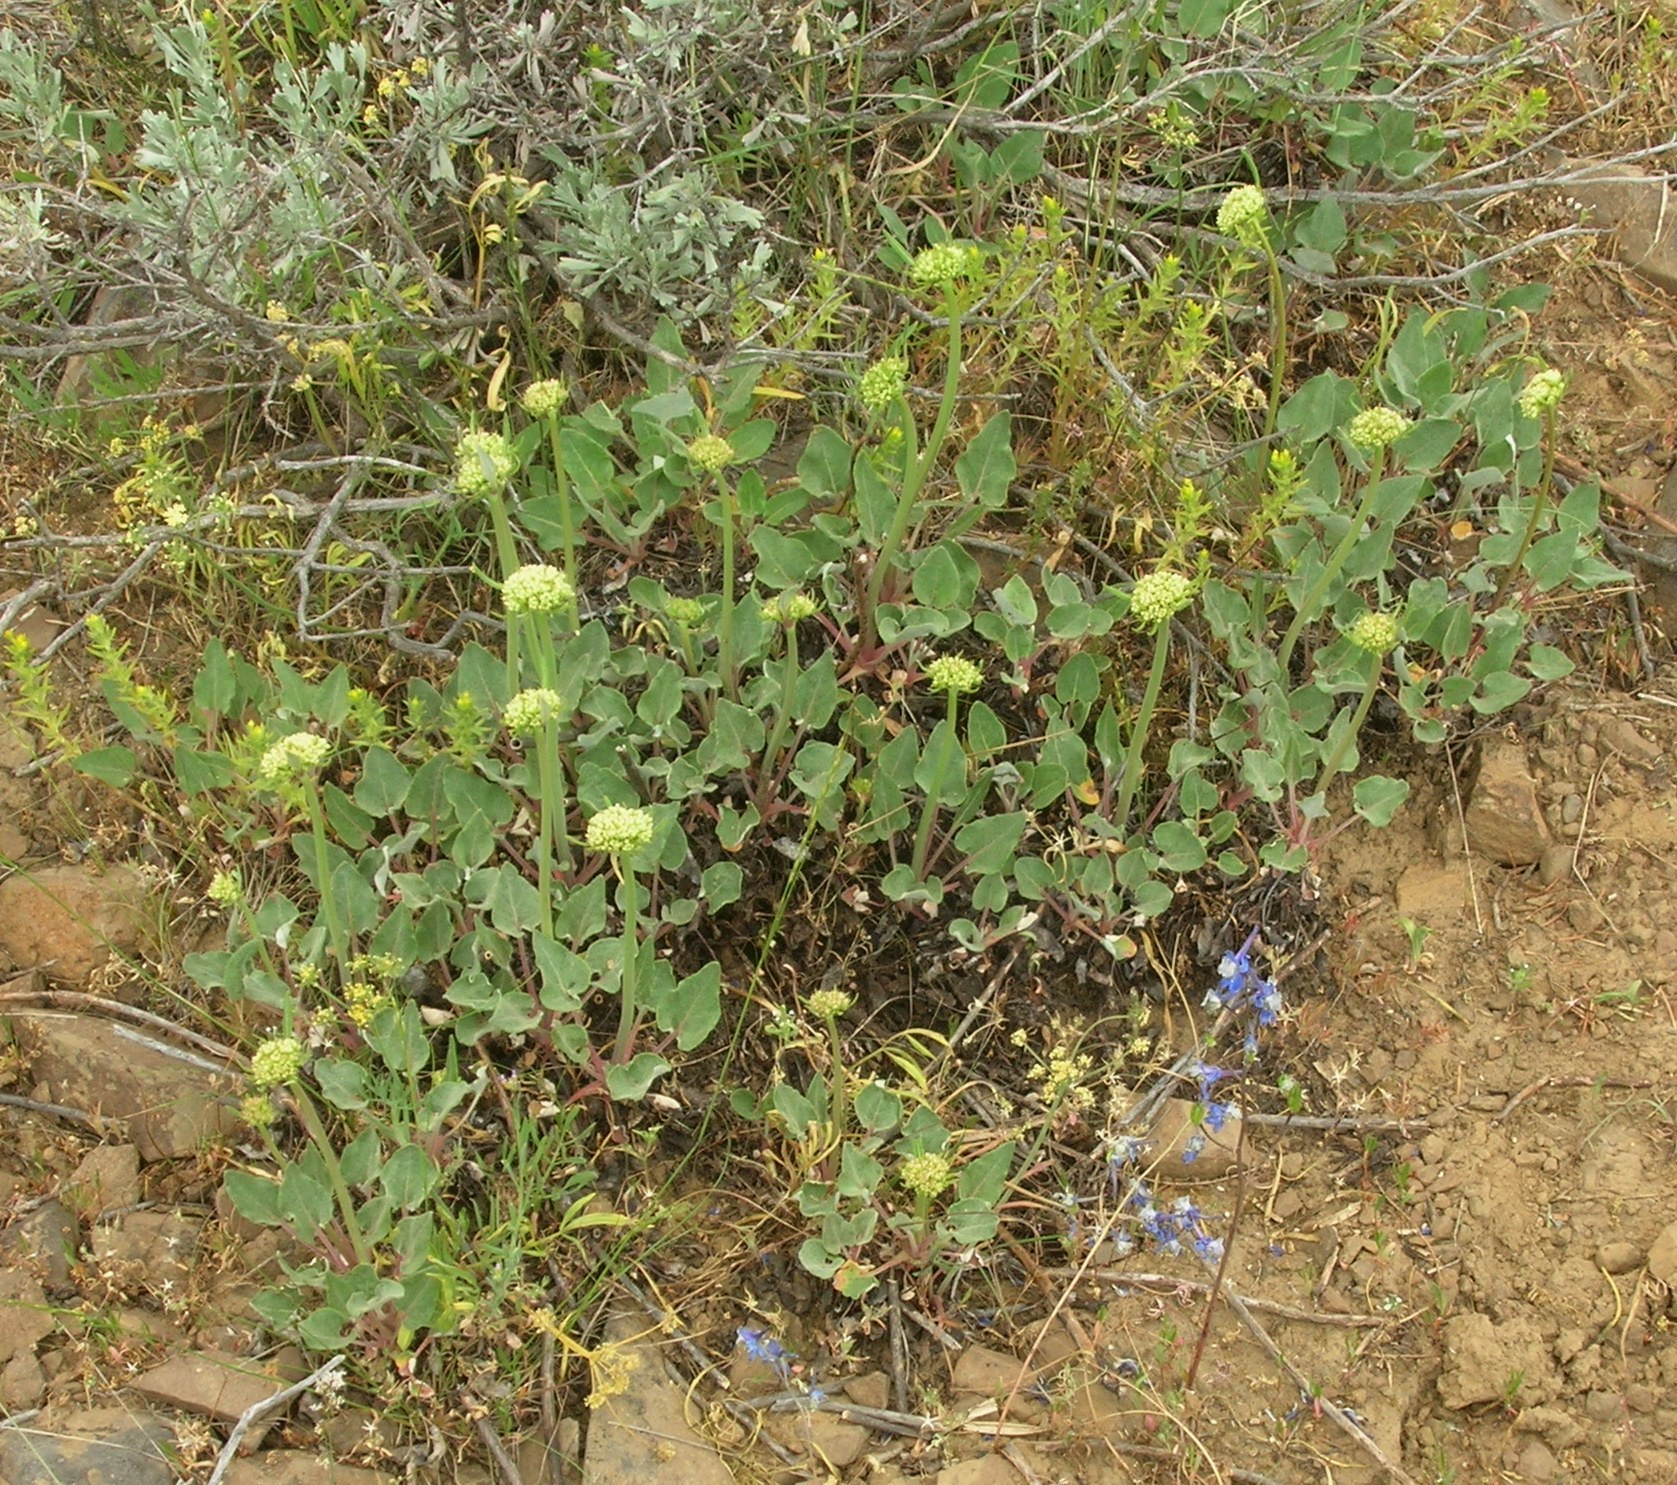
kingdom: Plantae
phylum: Tracheophyta
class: Magnoliopsida
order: Caryophyllales
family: Polygonaceae
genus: Eriogonum
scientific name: Eriogonum compositum
